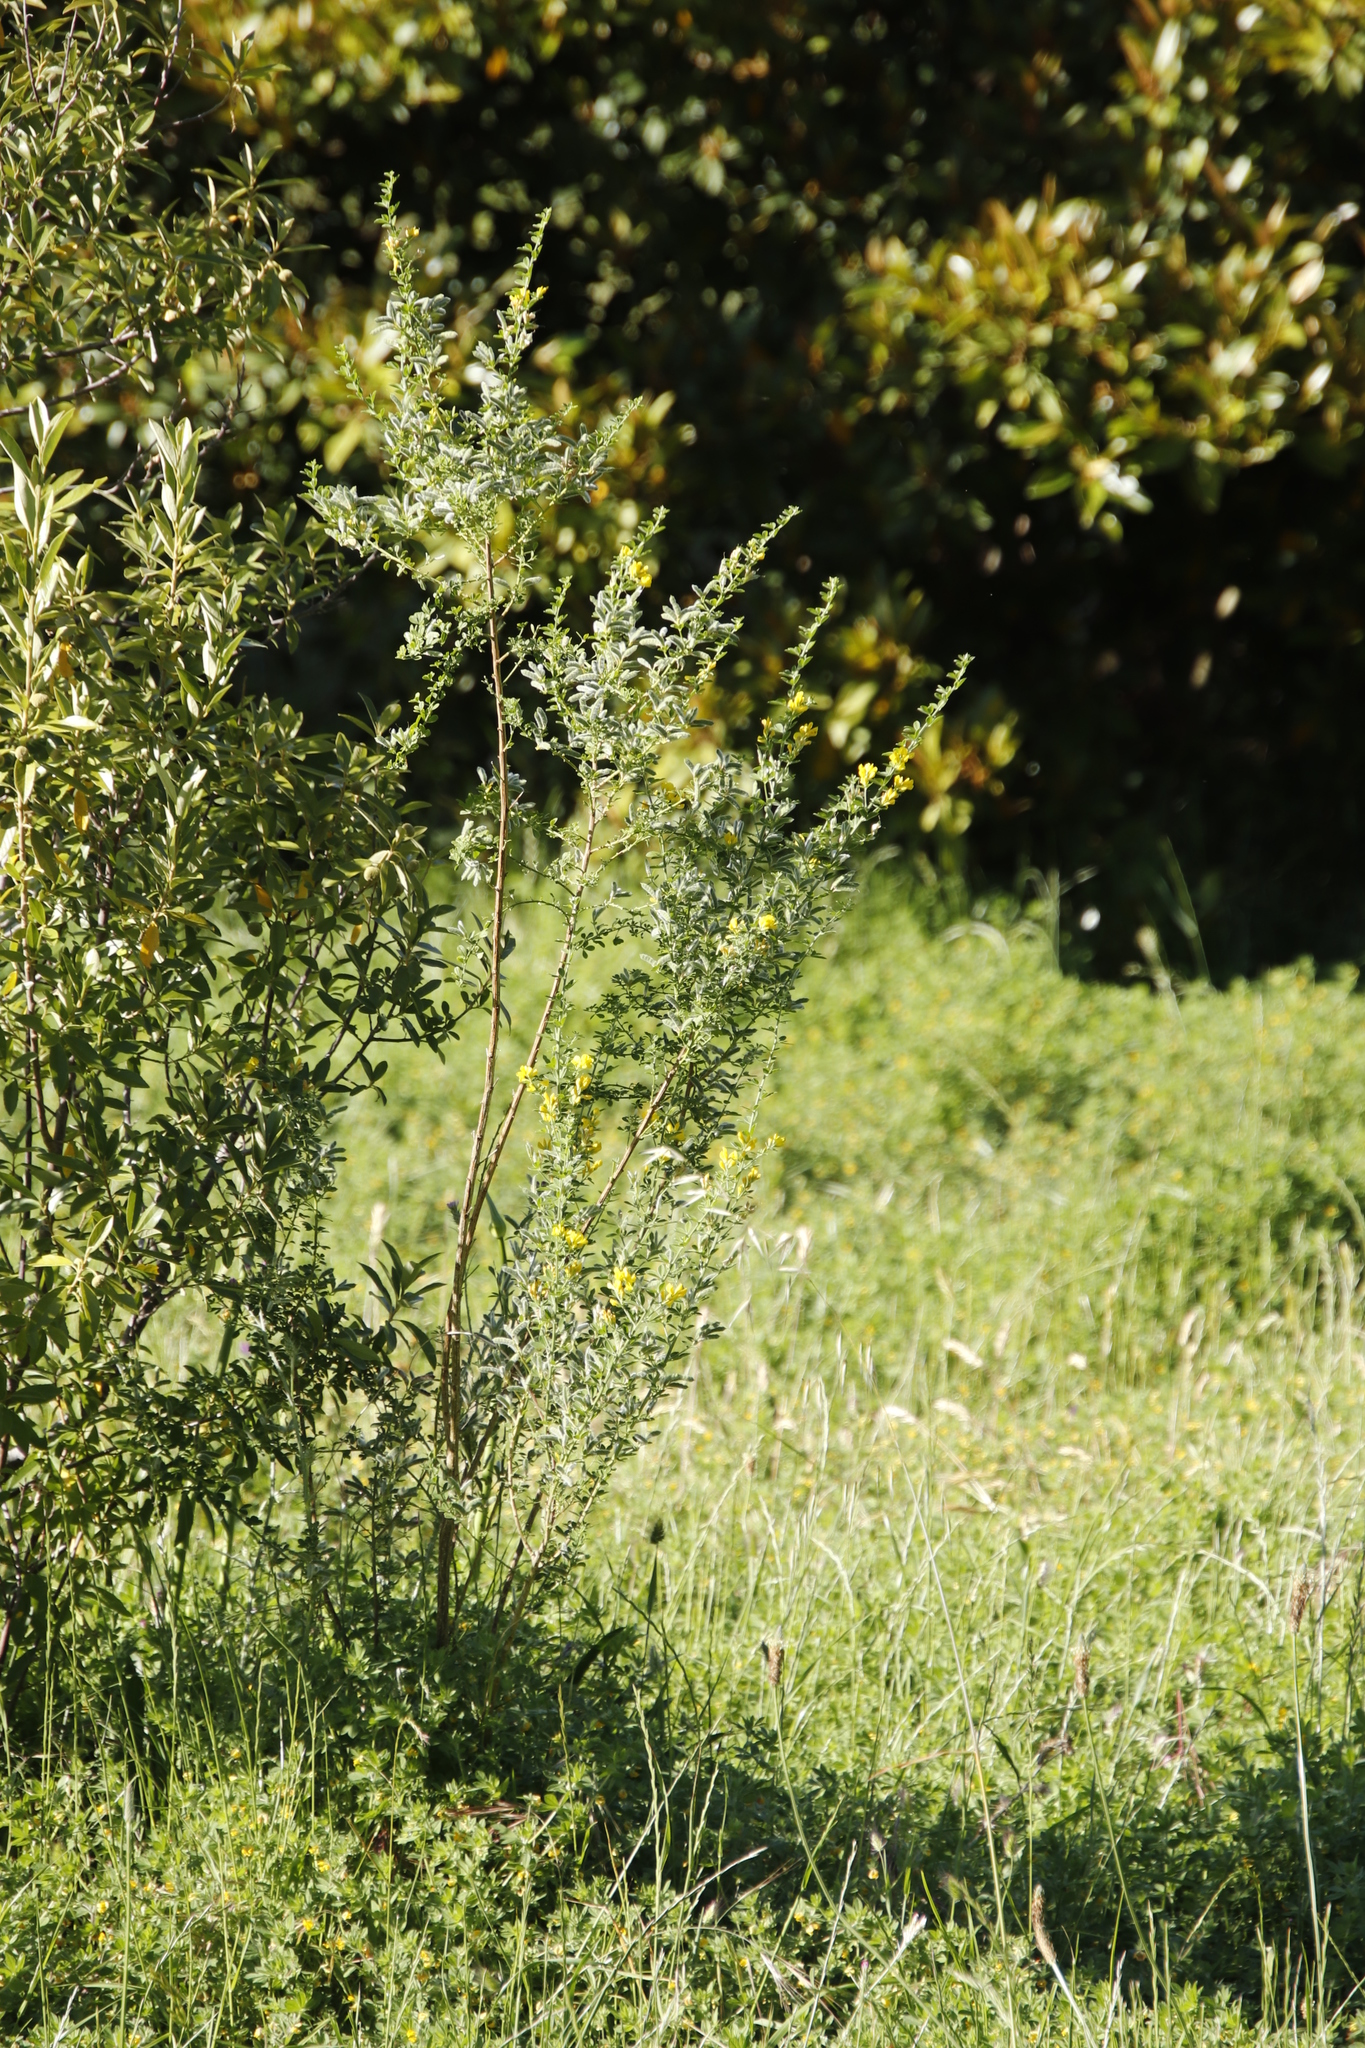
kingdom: Plantae
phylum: Tracheophyta
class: Magnoliopsida
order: Fabales
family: Fabaceae
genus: Genista
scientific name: Genista monspessulana
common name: Montpellier broom
